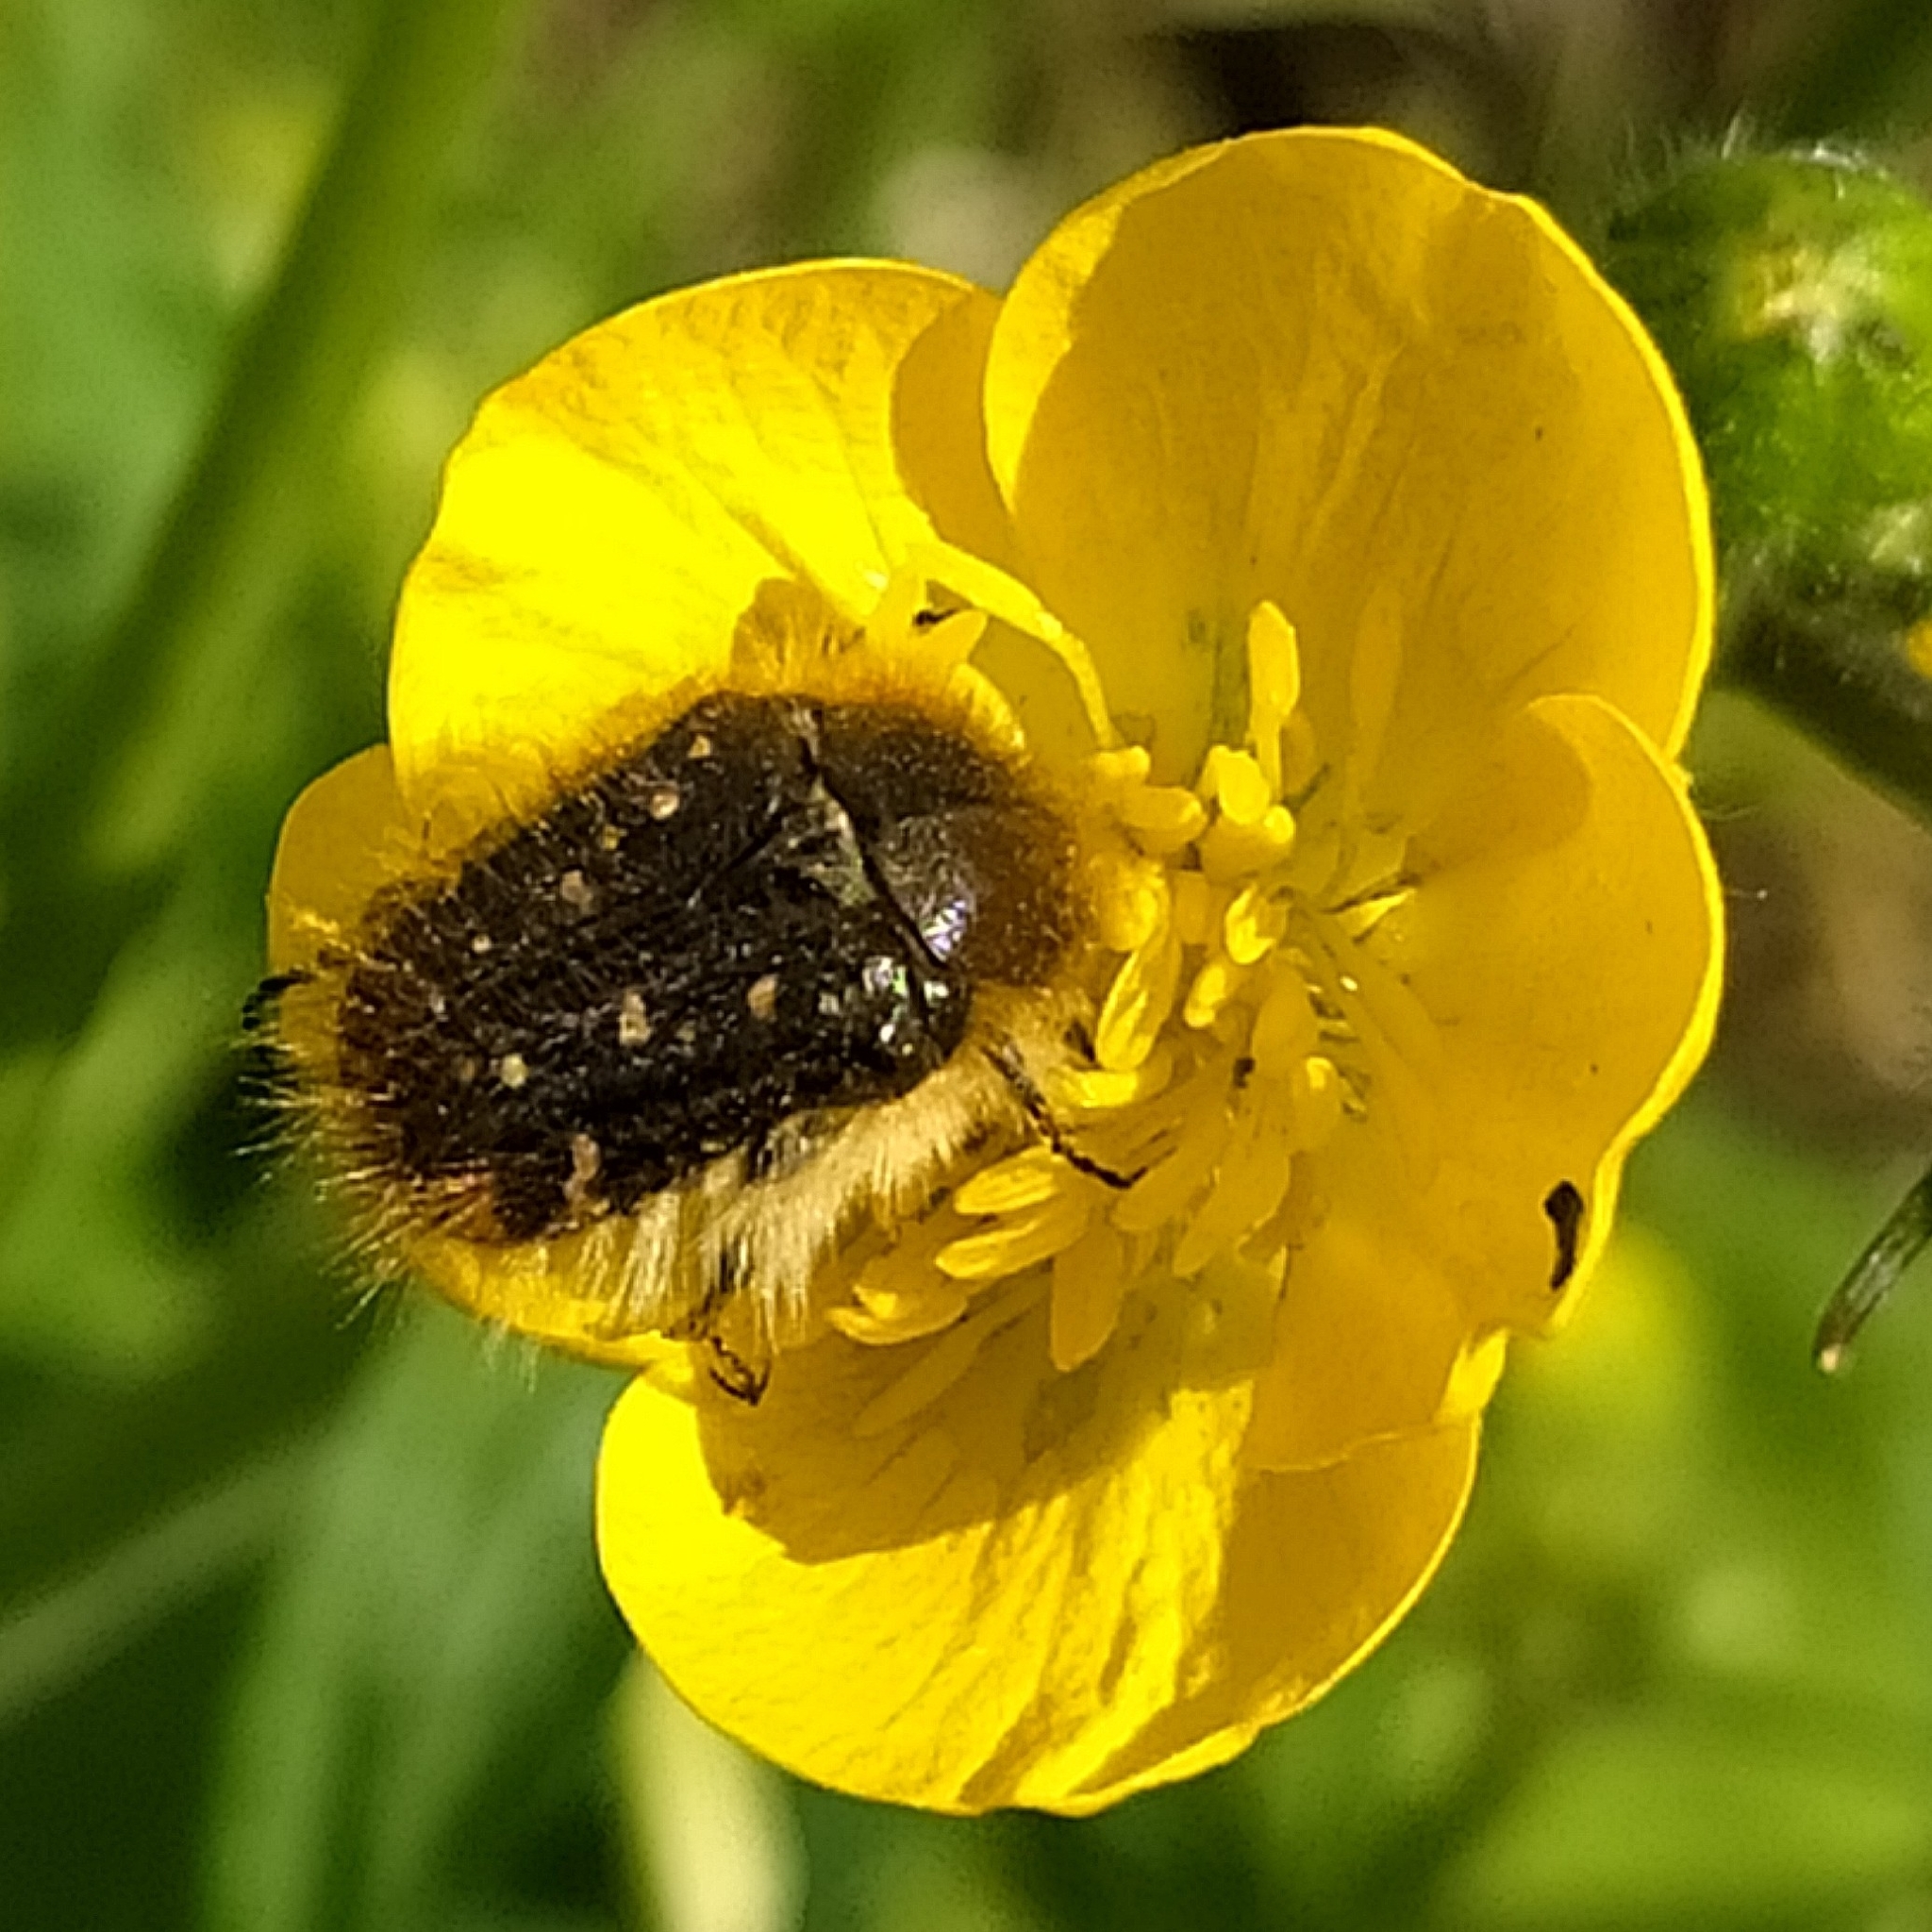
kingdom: Animalia
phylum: Arthropoda
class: Insecta
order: Coleoptera
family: Scarabaeidae
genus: Tropinota
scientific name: Tropinota squalida
